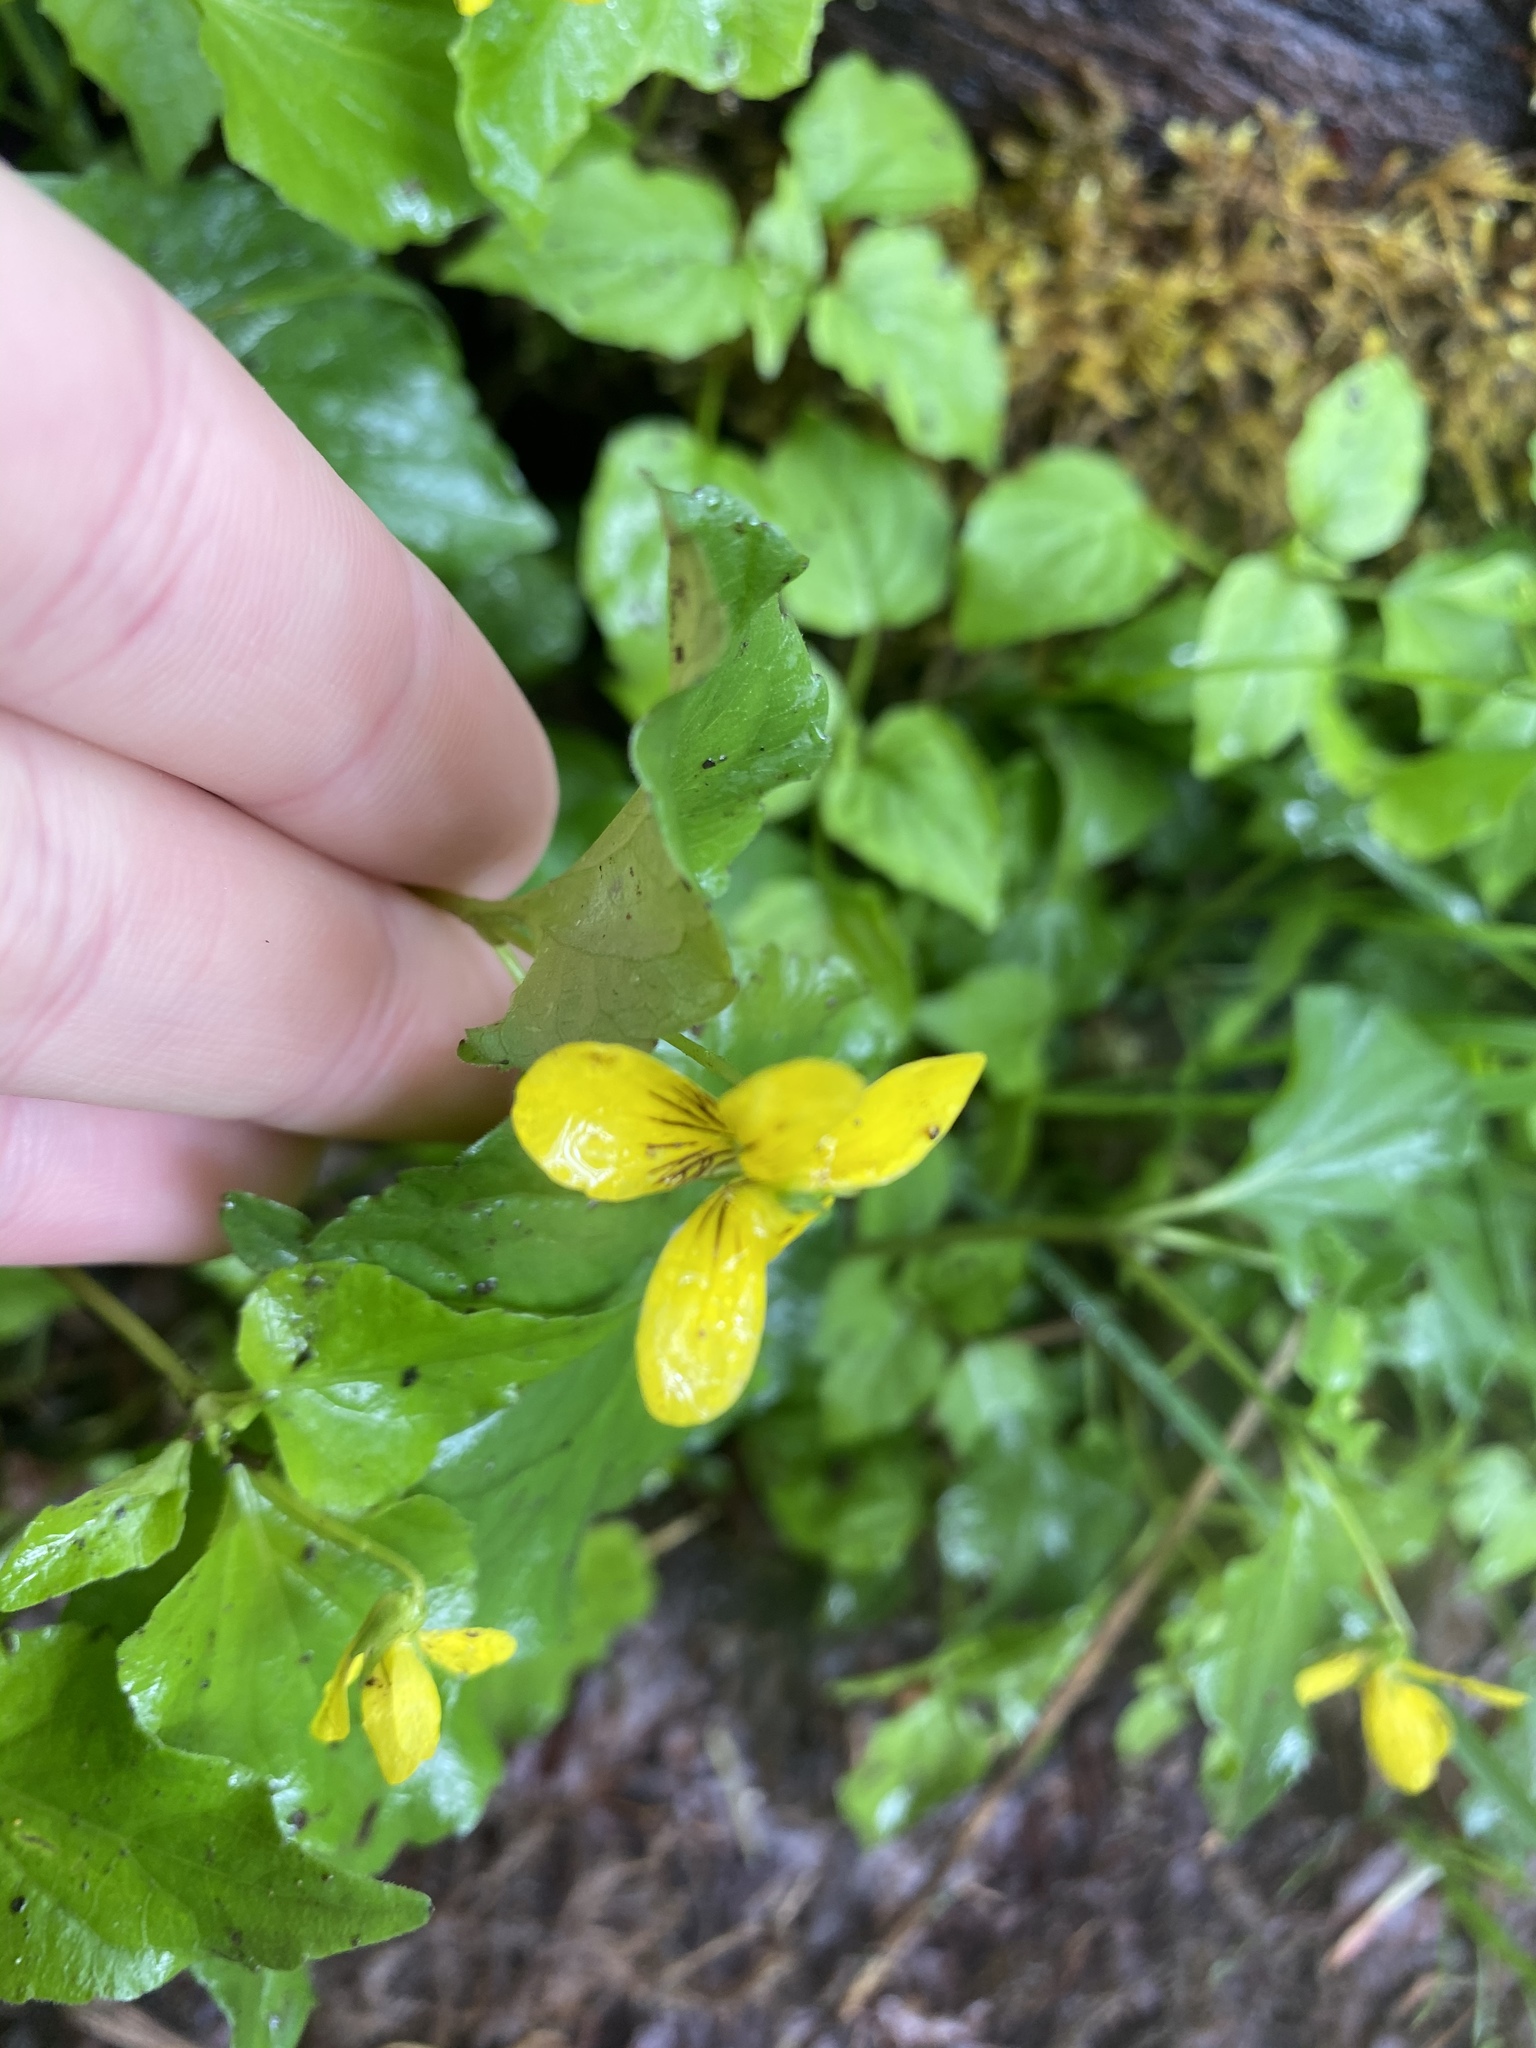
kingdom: Plantae
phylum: Tracheophyta
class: Magnoliopsida
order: Malpighiales
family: Violaceae
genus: Viola
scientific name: Viola glabella
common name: Stream violet
